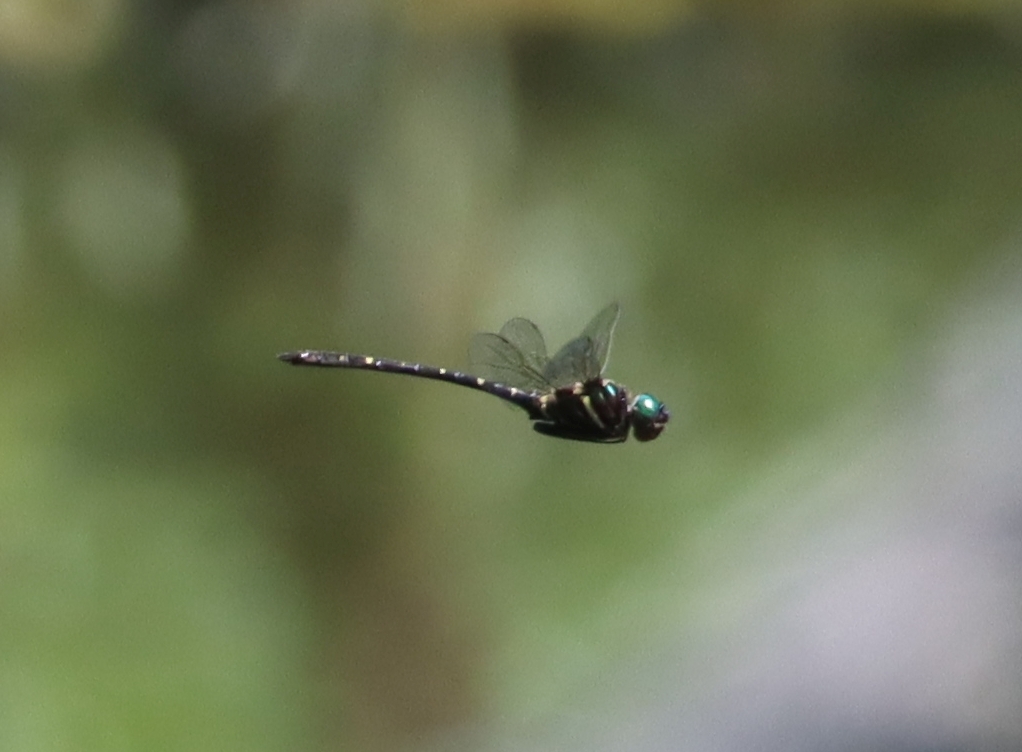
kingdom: Animalia
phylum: Arthropoda
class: Insecta
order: Odonata
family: Macromiidae
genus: Macromia
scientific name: Macromia taeniolata
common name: Royal river cruiser
